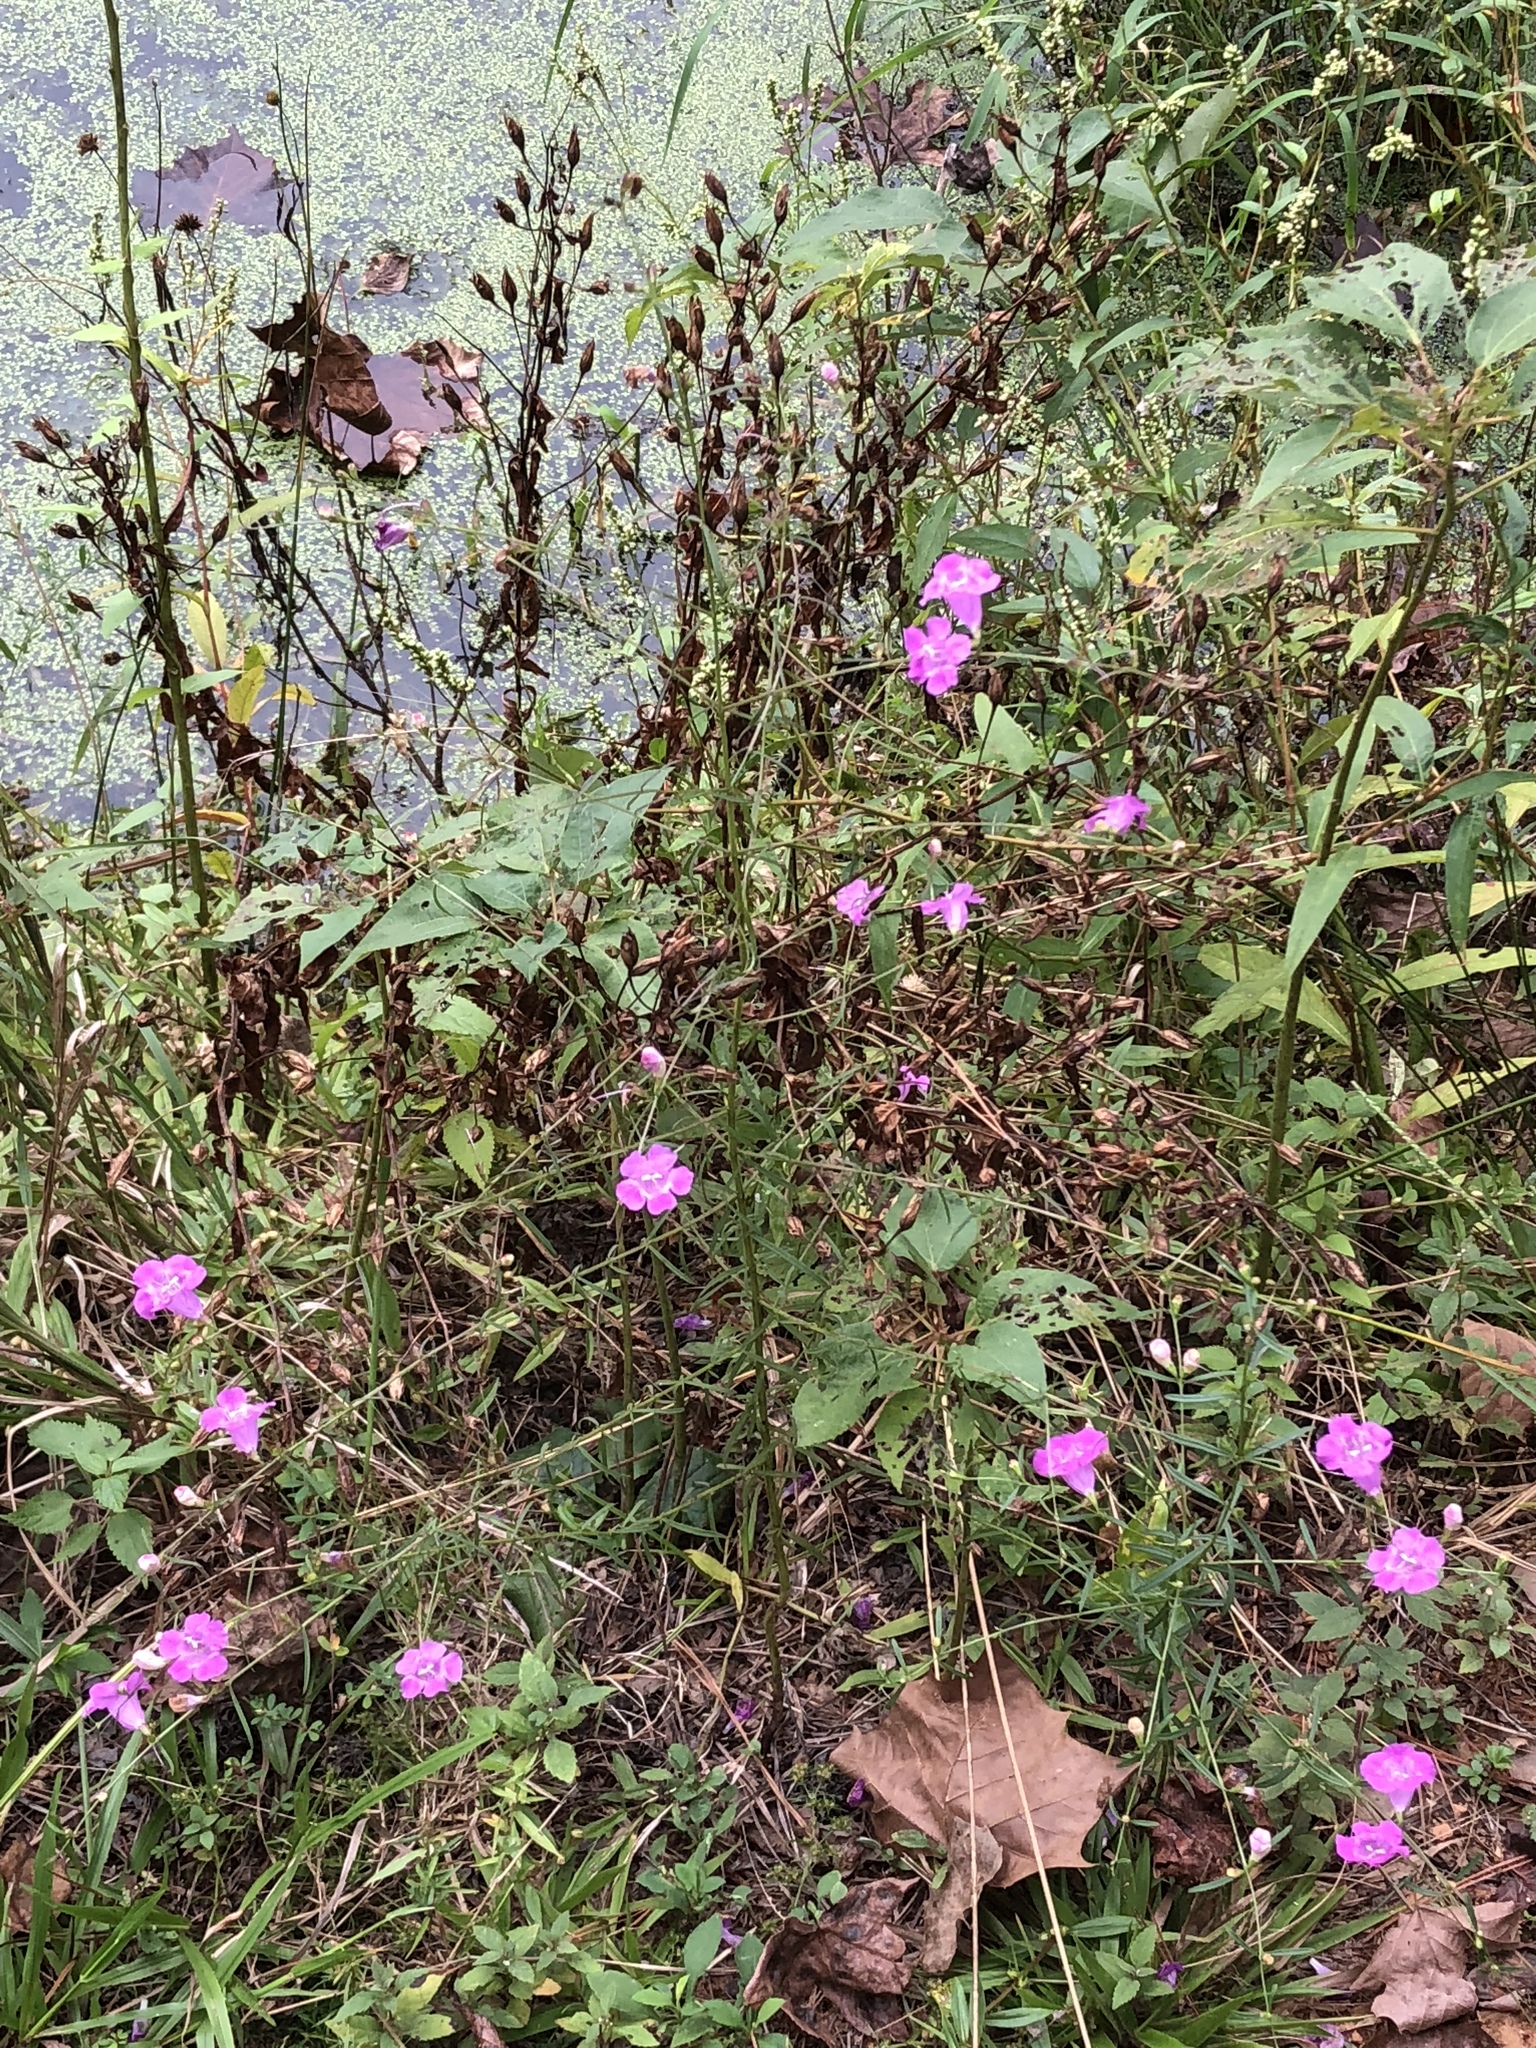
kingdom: Plantae
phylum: Tracheophyta
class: Magnoliopsida
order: Lamiales
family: Orobanchaceae
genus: Agalinis
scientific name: Agalinis purpurea
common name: Purple false foxglove
